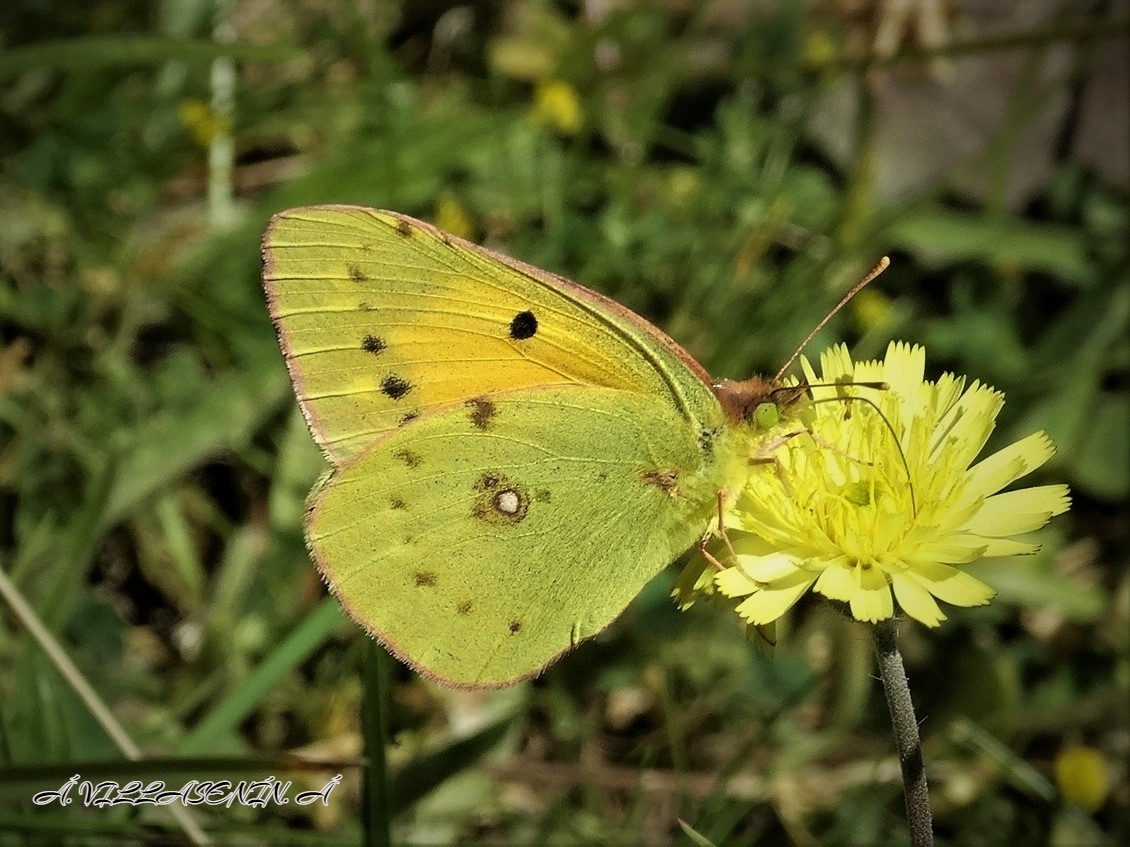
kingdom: Animalia
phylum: Arthropoda
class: Insecta
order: Lepidoptera
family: Pieridae
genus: Colias
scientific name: Colias croceus
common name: Clouded yellow
